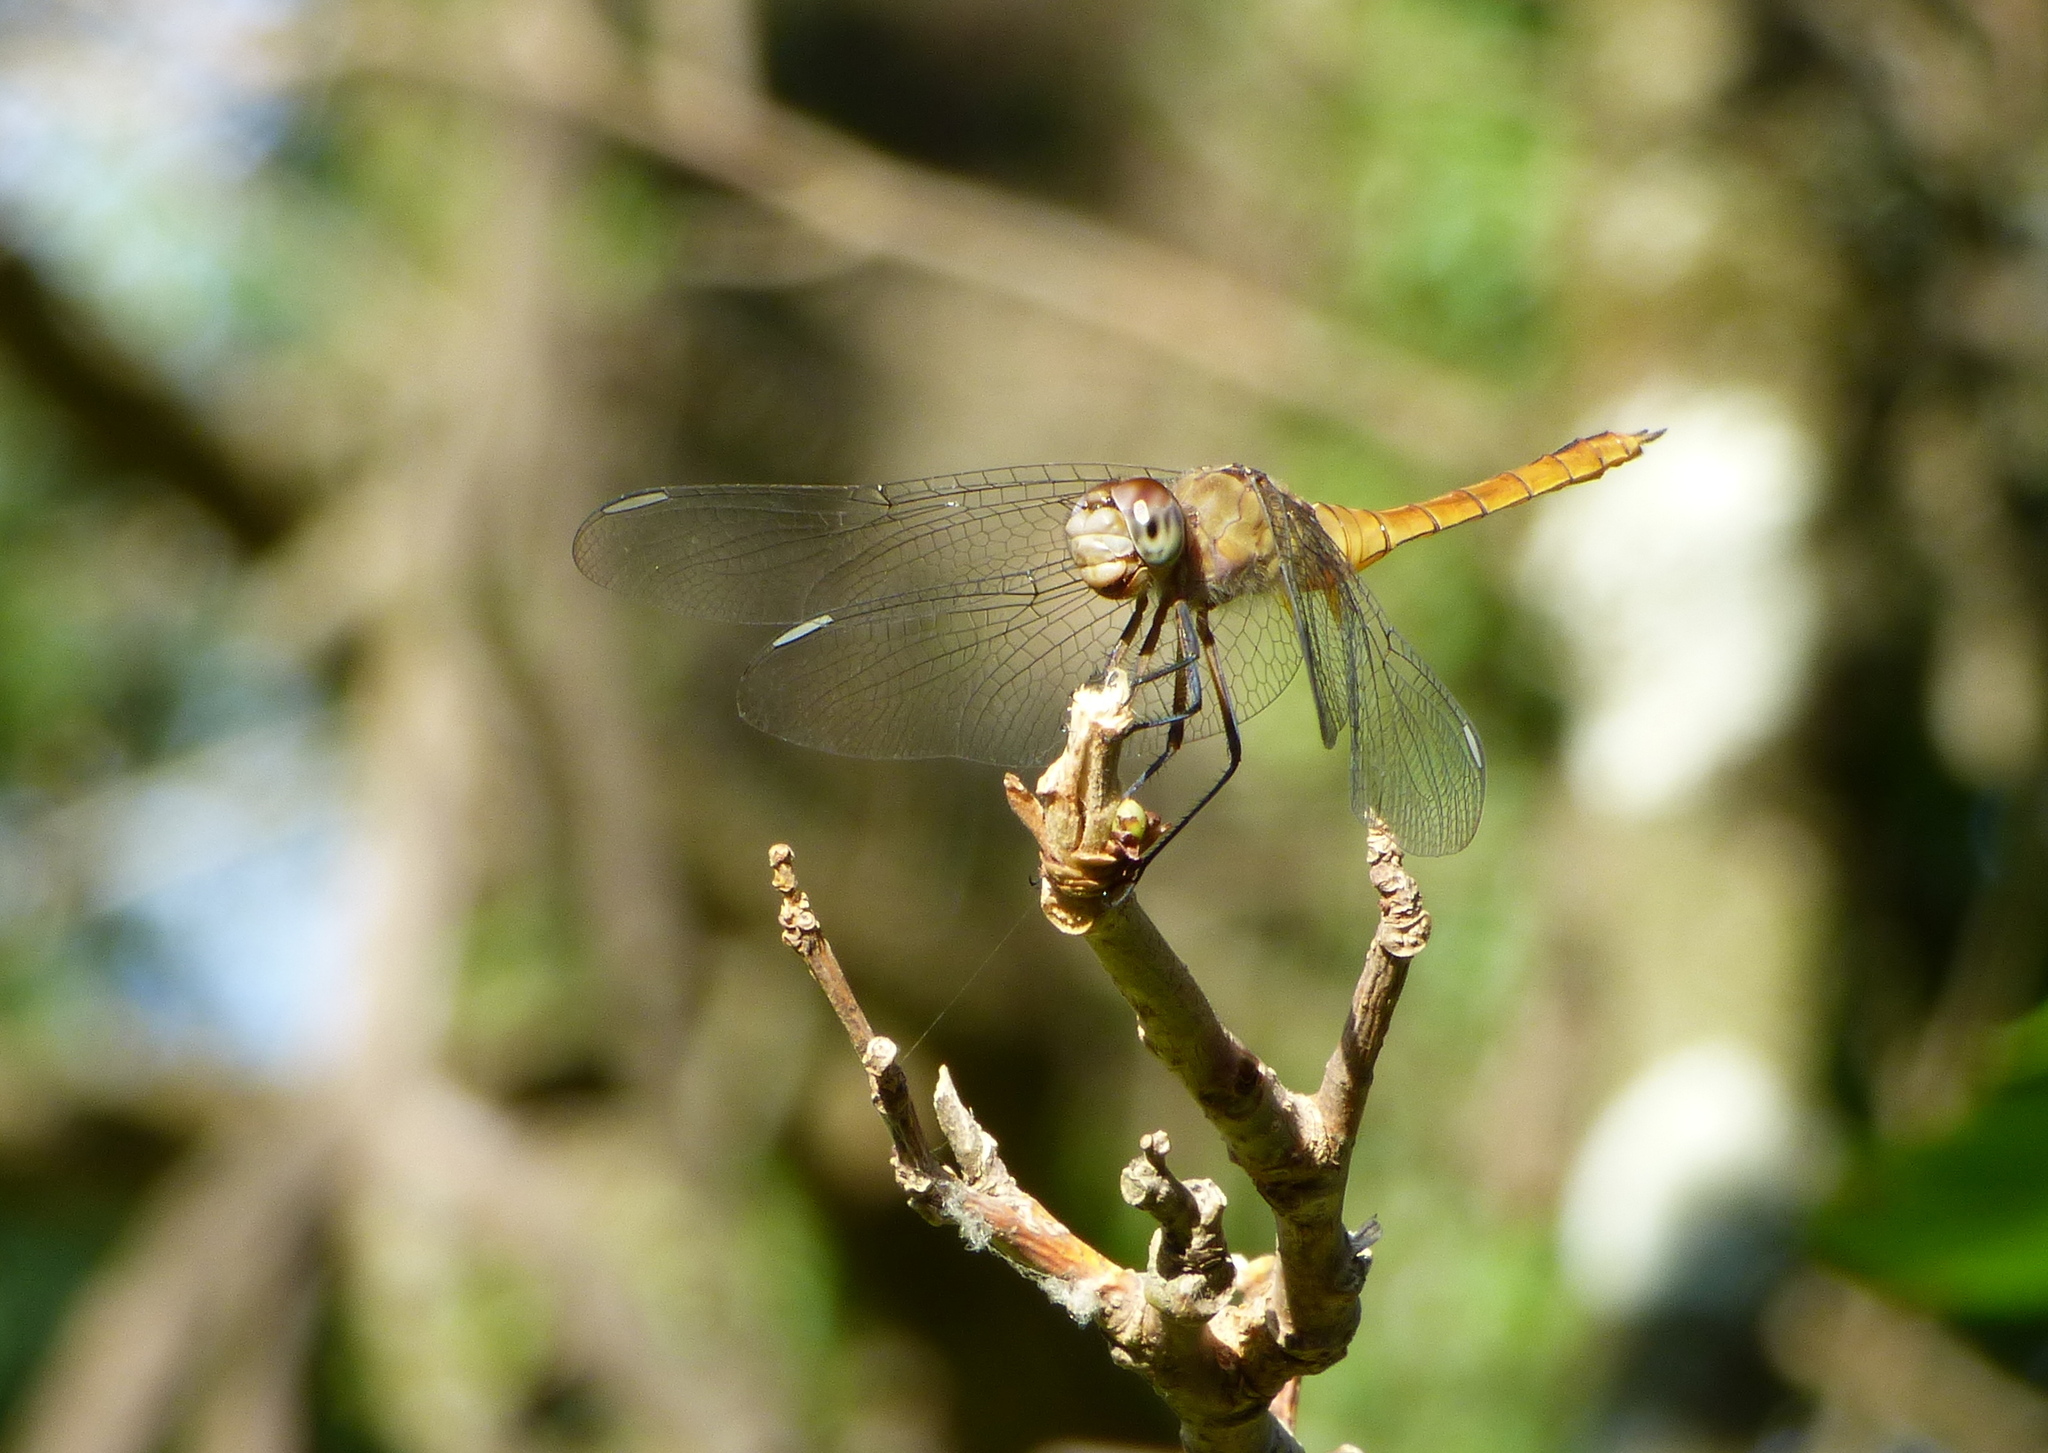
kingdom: Animalia
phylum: Arthropoda
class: Insecta
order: Odonata
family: Libellulidae
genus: Brachymesia
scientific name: Brachymesia furcata
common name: Red-taled pennant
